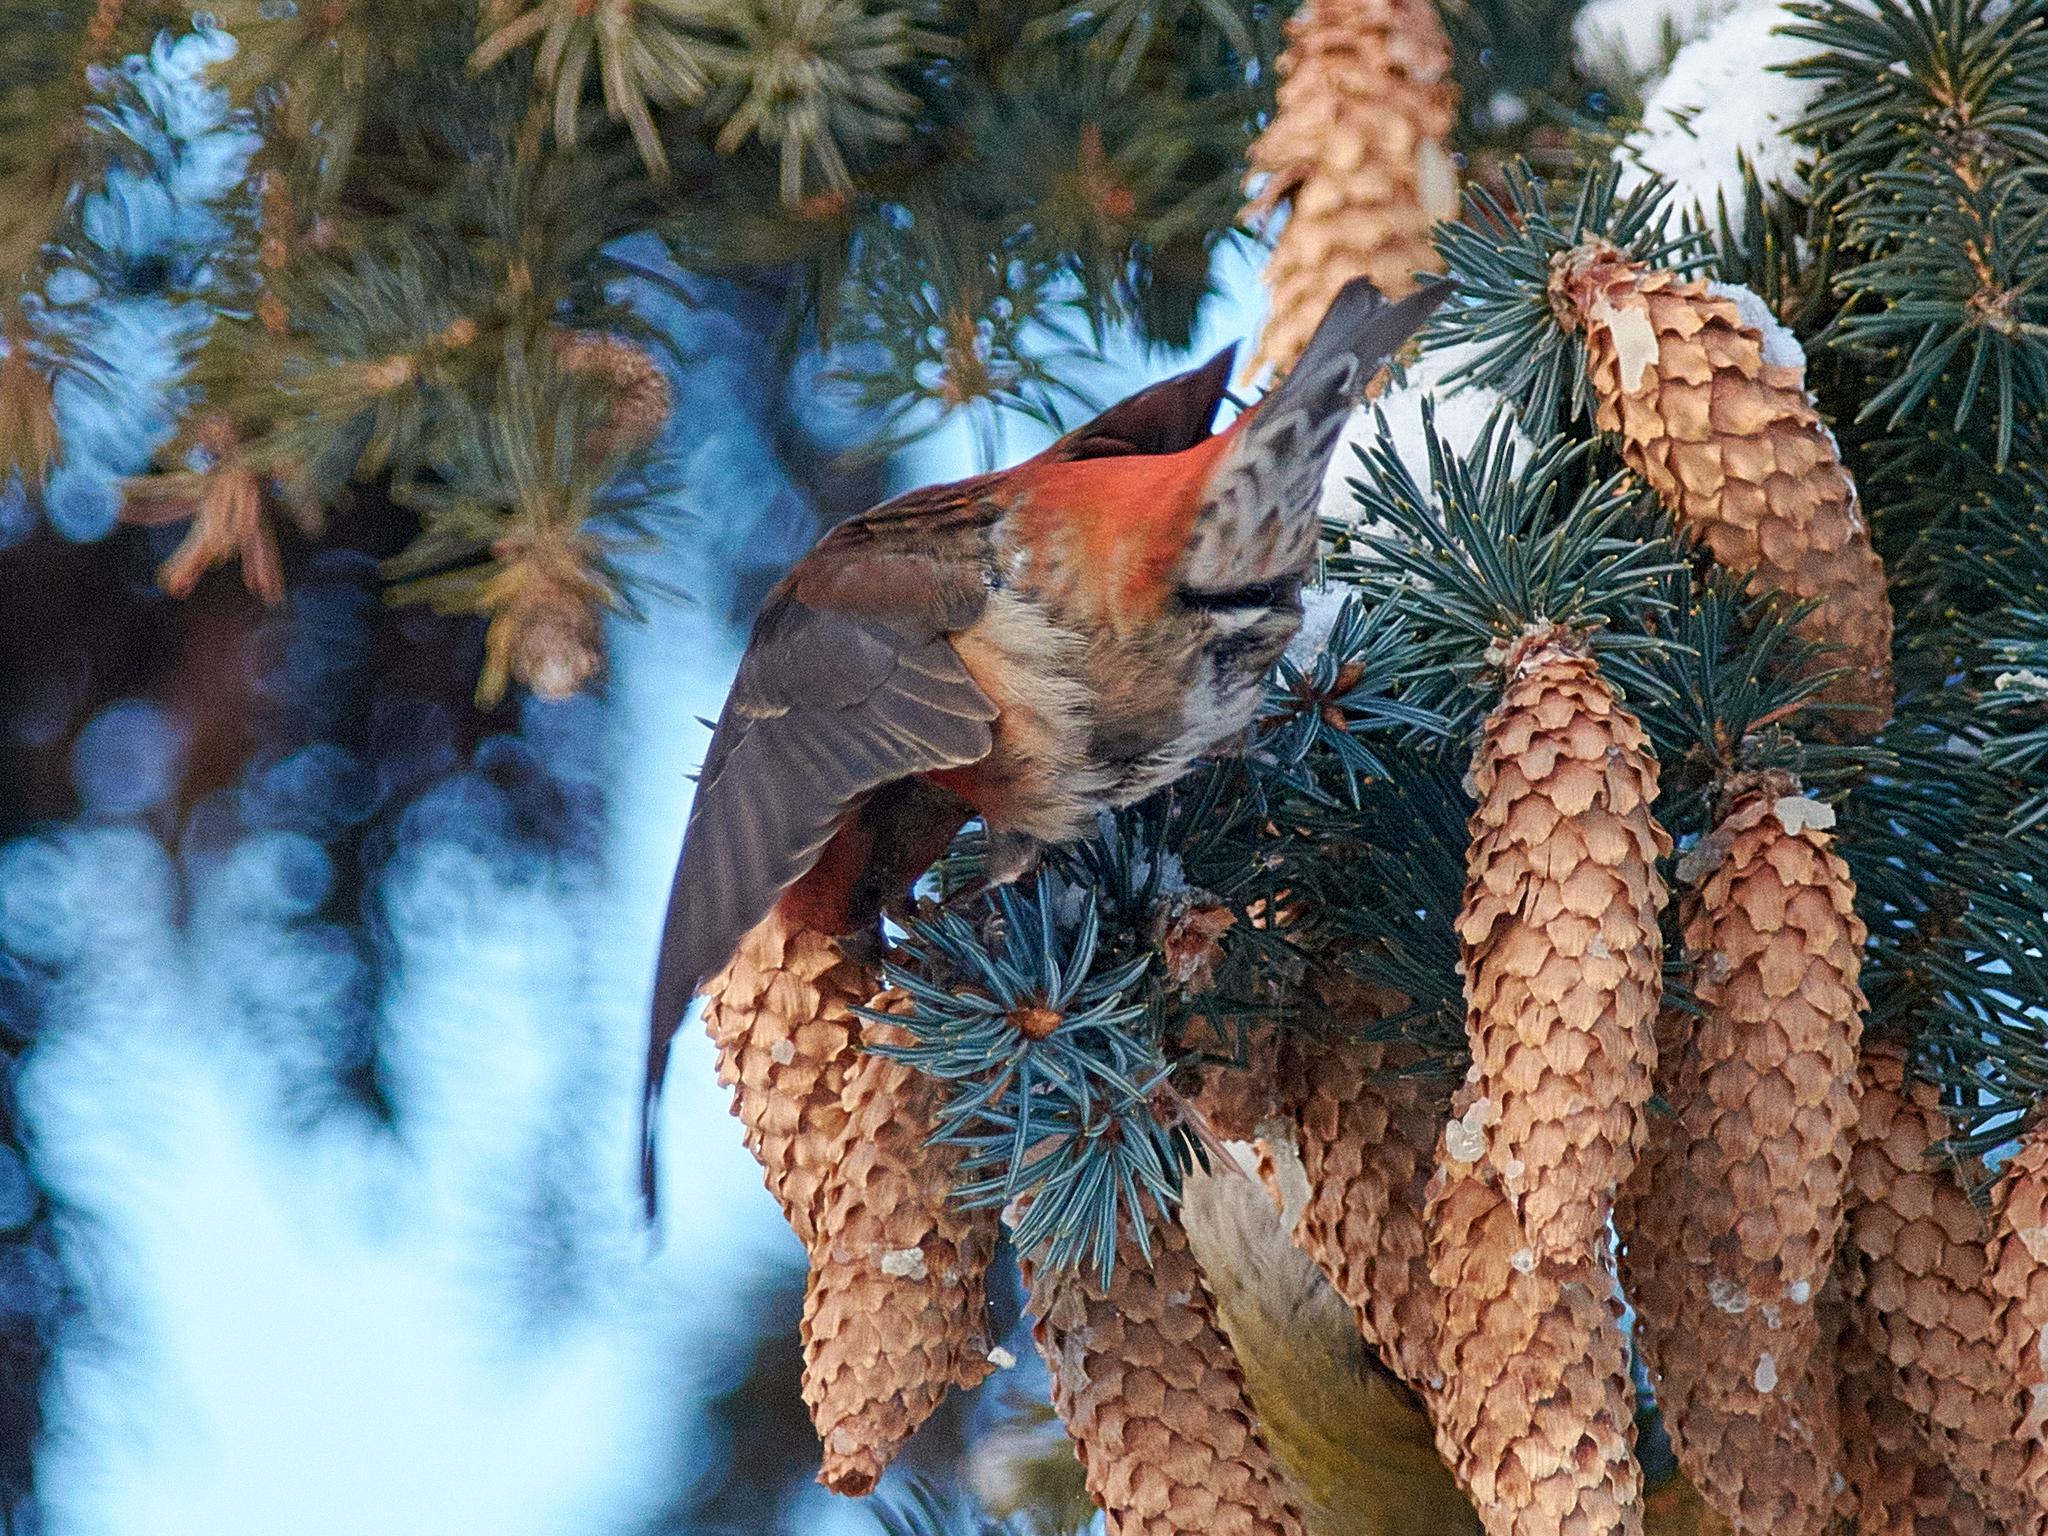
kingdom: Animalia
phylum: Chordata
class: Aves
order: Passeriformes
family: Fringillidae
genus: Loxia
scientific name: Loxia curvirostra
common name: Red crossbill
